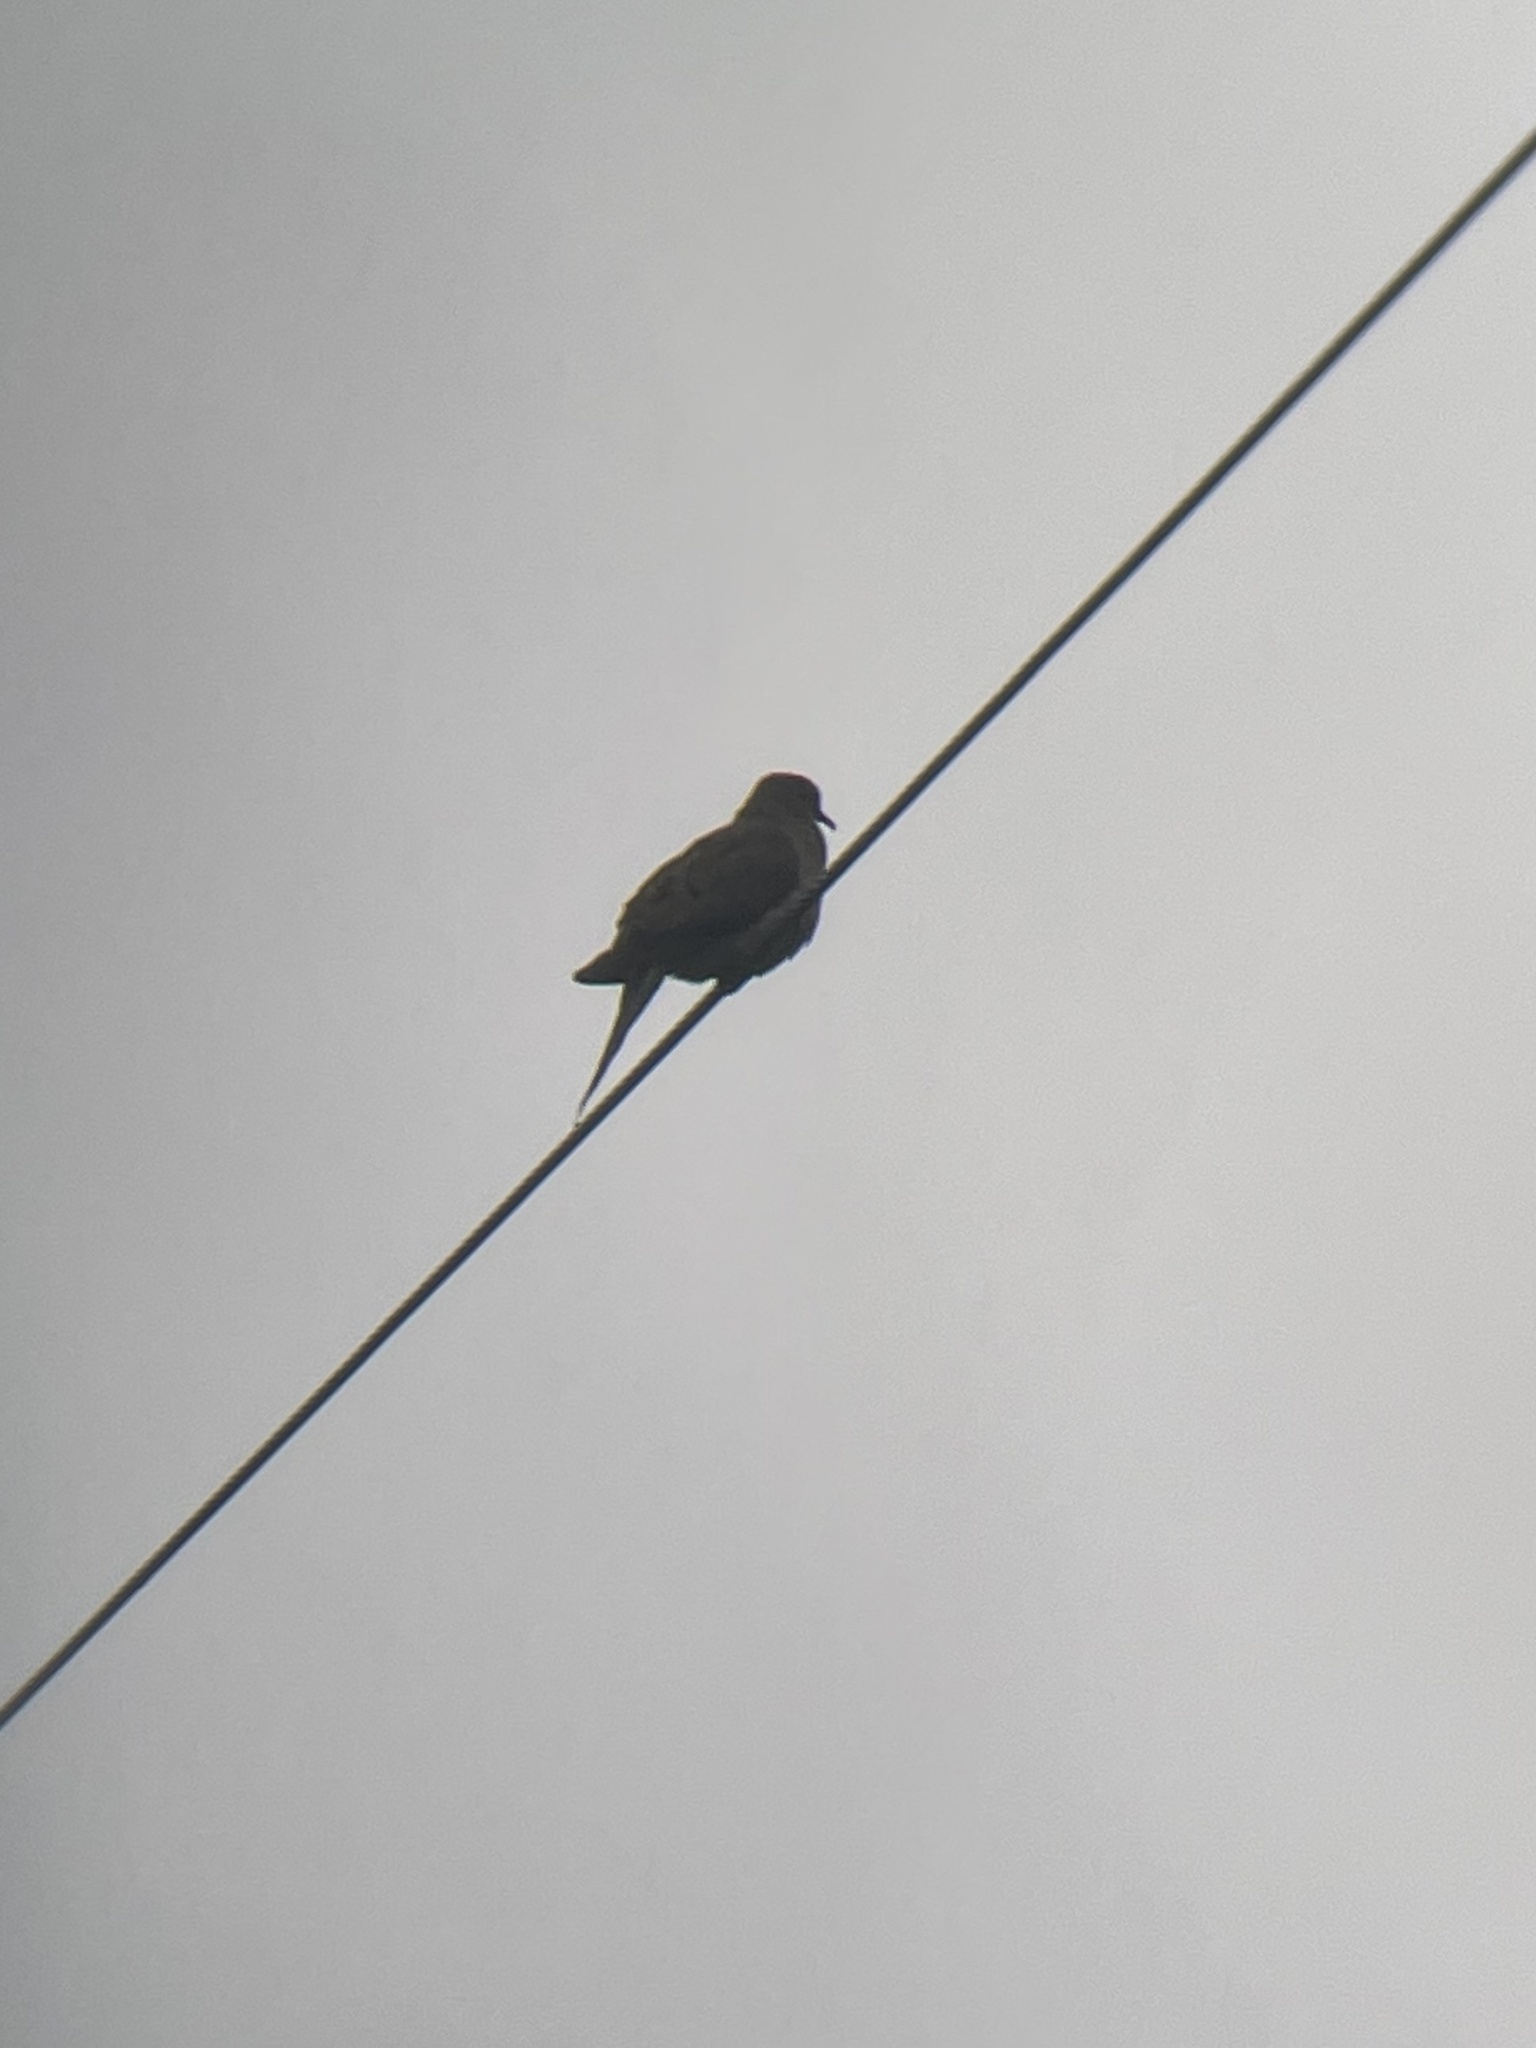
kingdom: Animalia
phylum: Chordata
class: Aves
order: Columbiformes
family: Columbidae
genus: Zenaida
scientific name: Zenaida macroura
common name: Mourning dove
